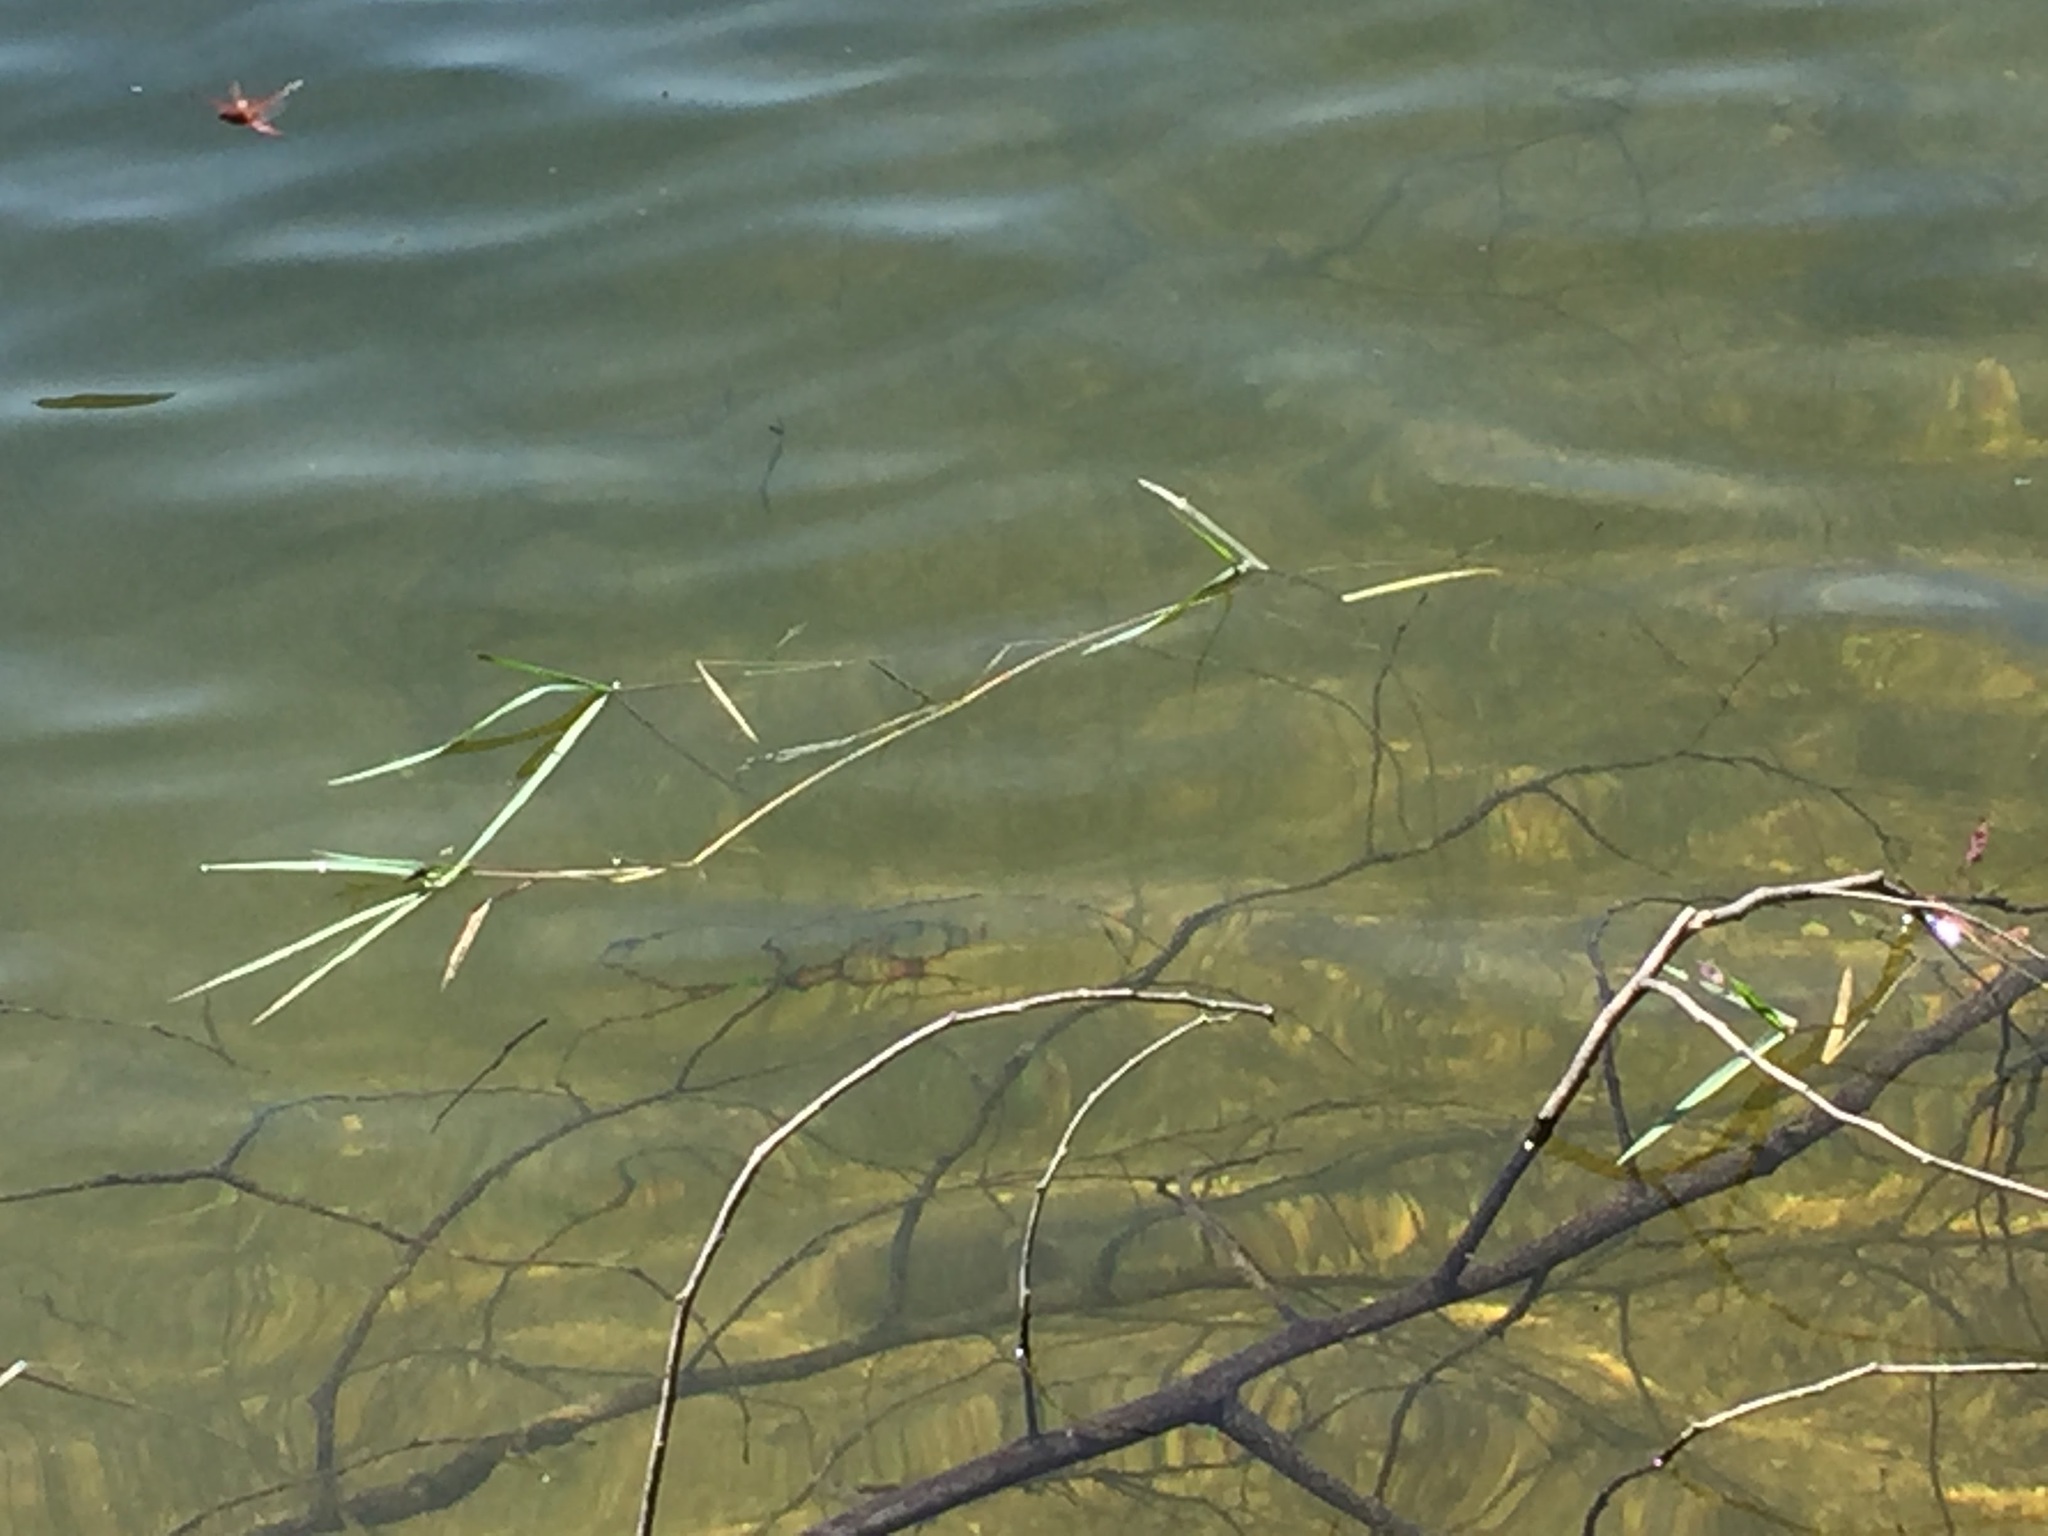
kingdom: Animalia
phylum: Arthropoda
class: Insecta
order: Odonata
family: Libellulidae
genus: Trithemis
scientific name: Trithemis annulata
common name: Violet dropwing
